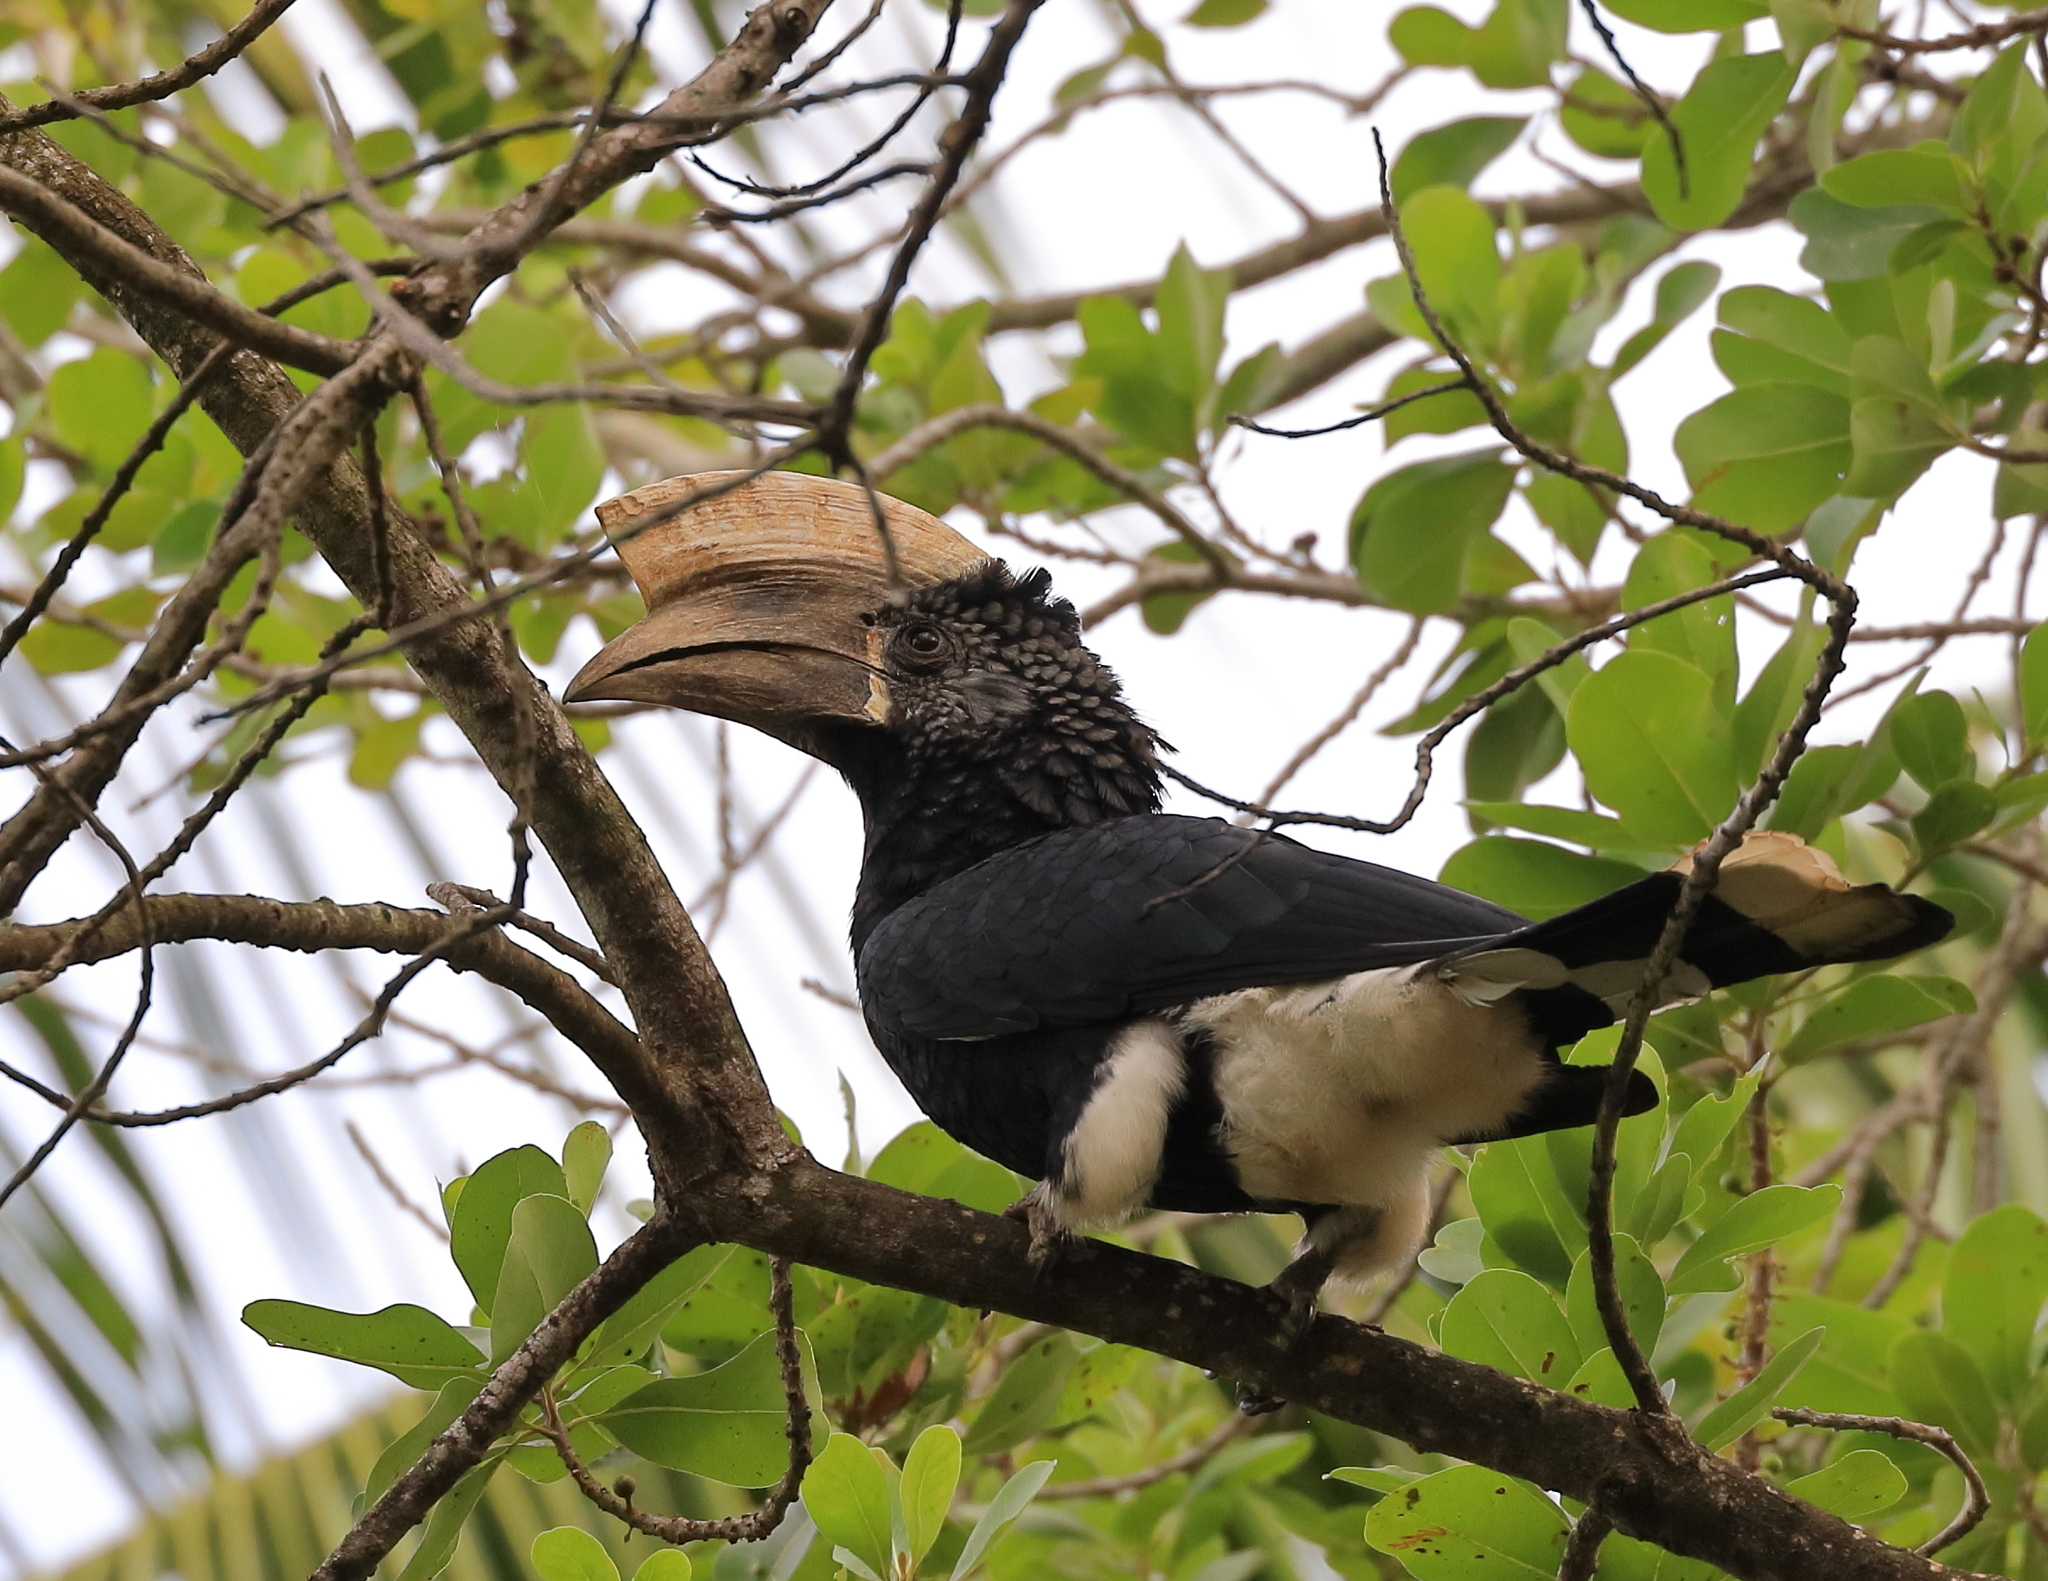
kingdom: Animalia
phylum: Chordata
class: Aves
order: Bucerotiformes
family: Bucerotidae
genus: Bycanistes
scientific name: Bycanistes brevis
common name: Silvery-cheeked hornbill
